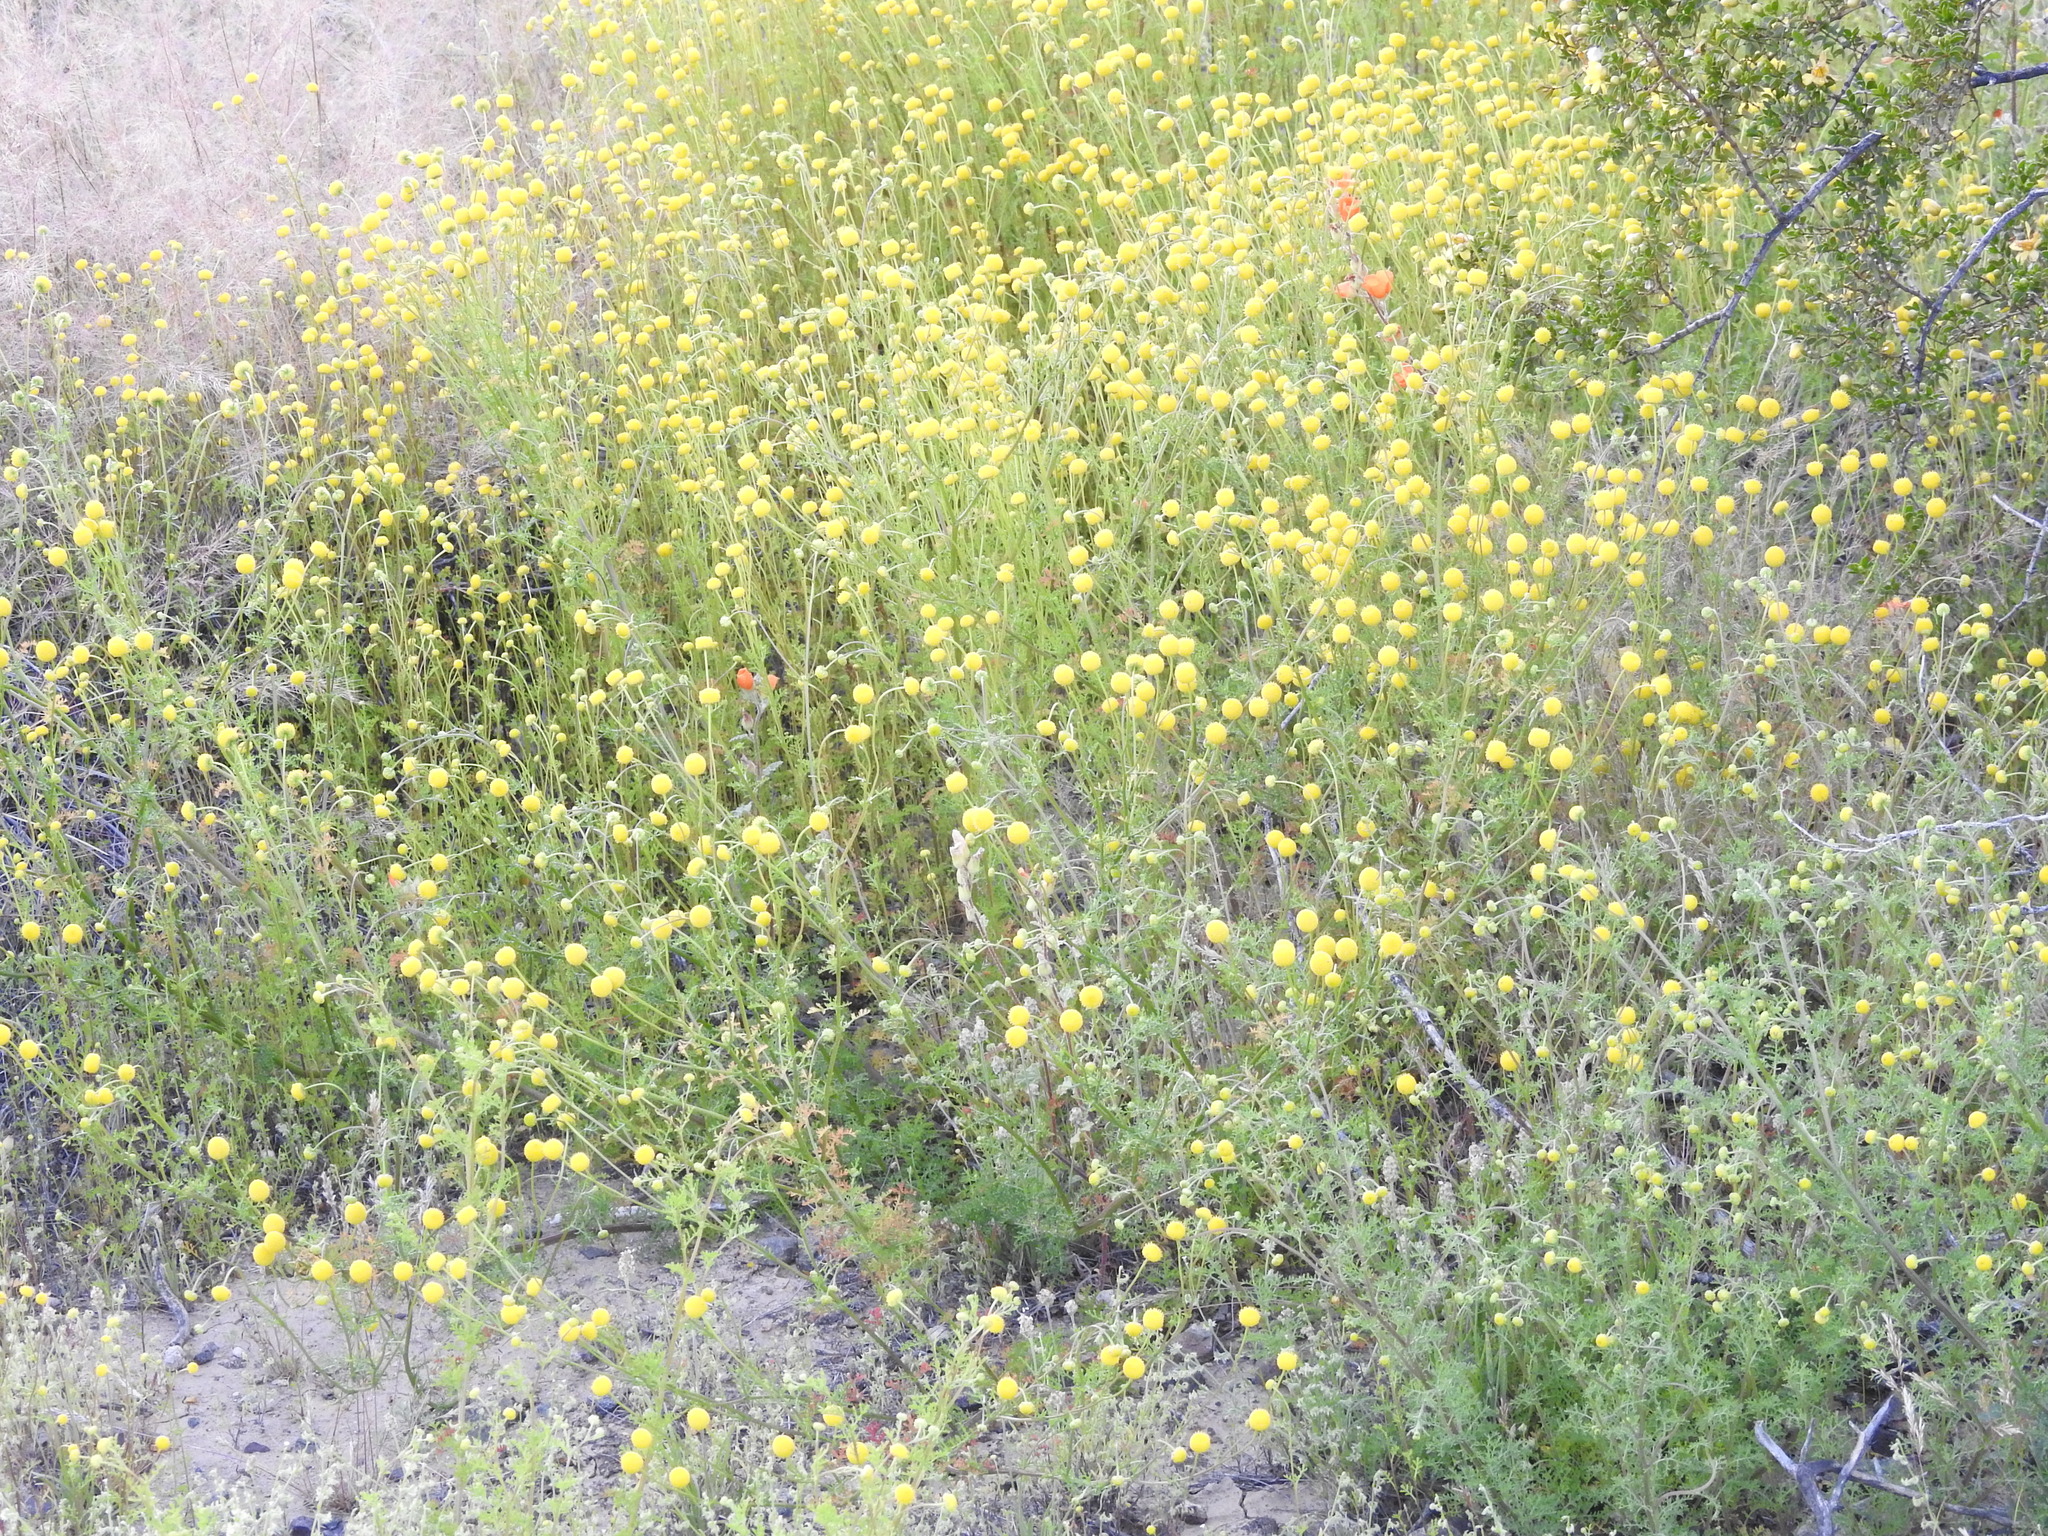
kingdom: Plantae
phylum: Tracheophyta
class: Magnoliopsida
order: Asterales
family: Asteraceae
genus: Oncosiphon
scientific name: Oncosiphon pilulifer
